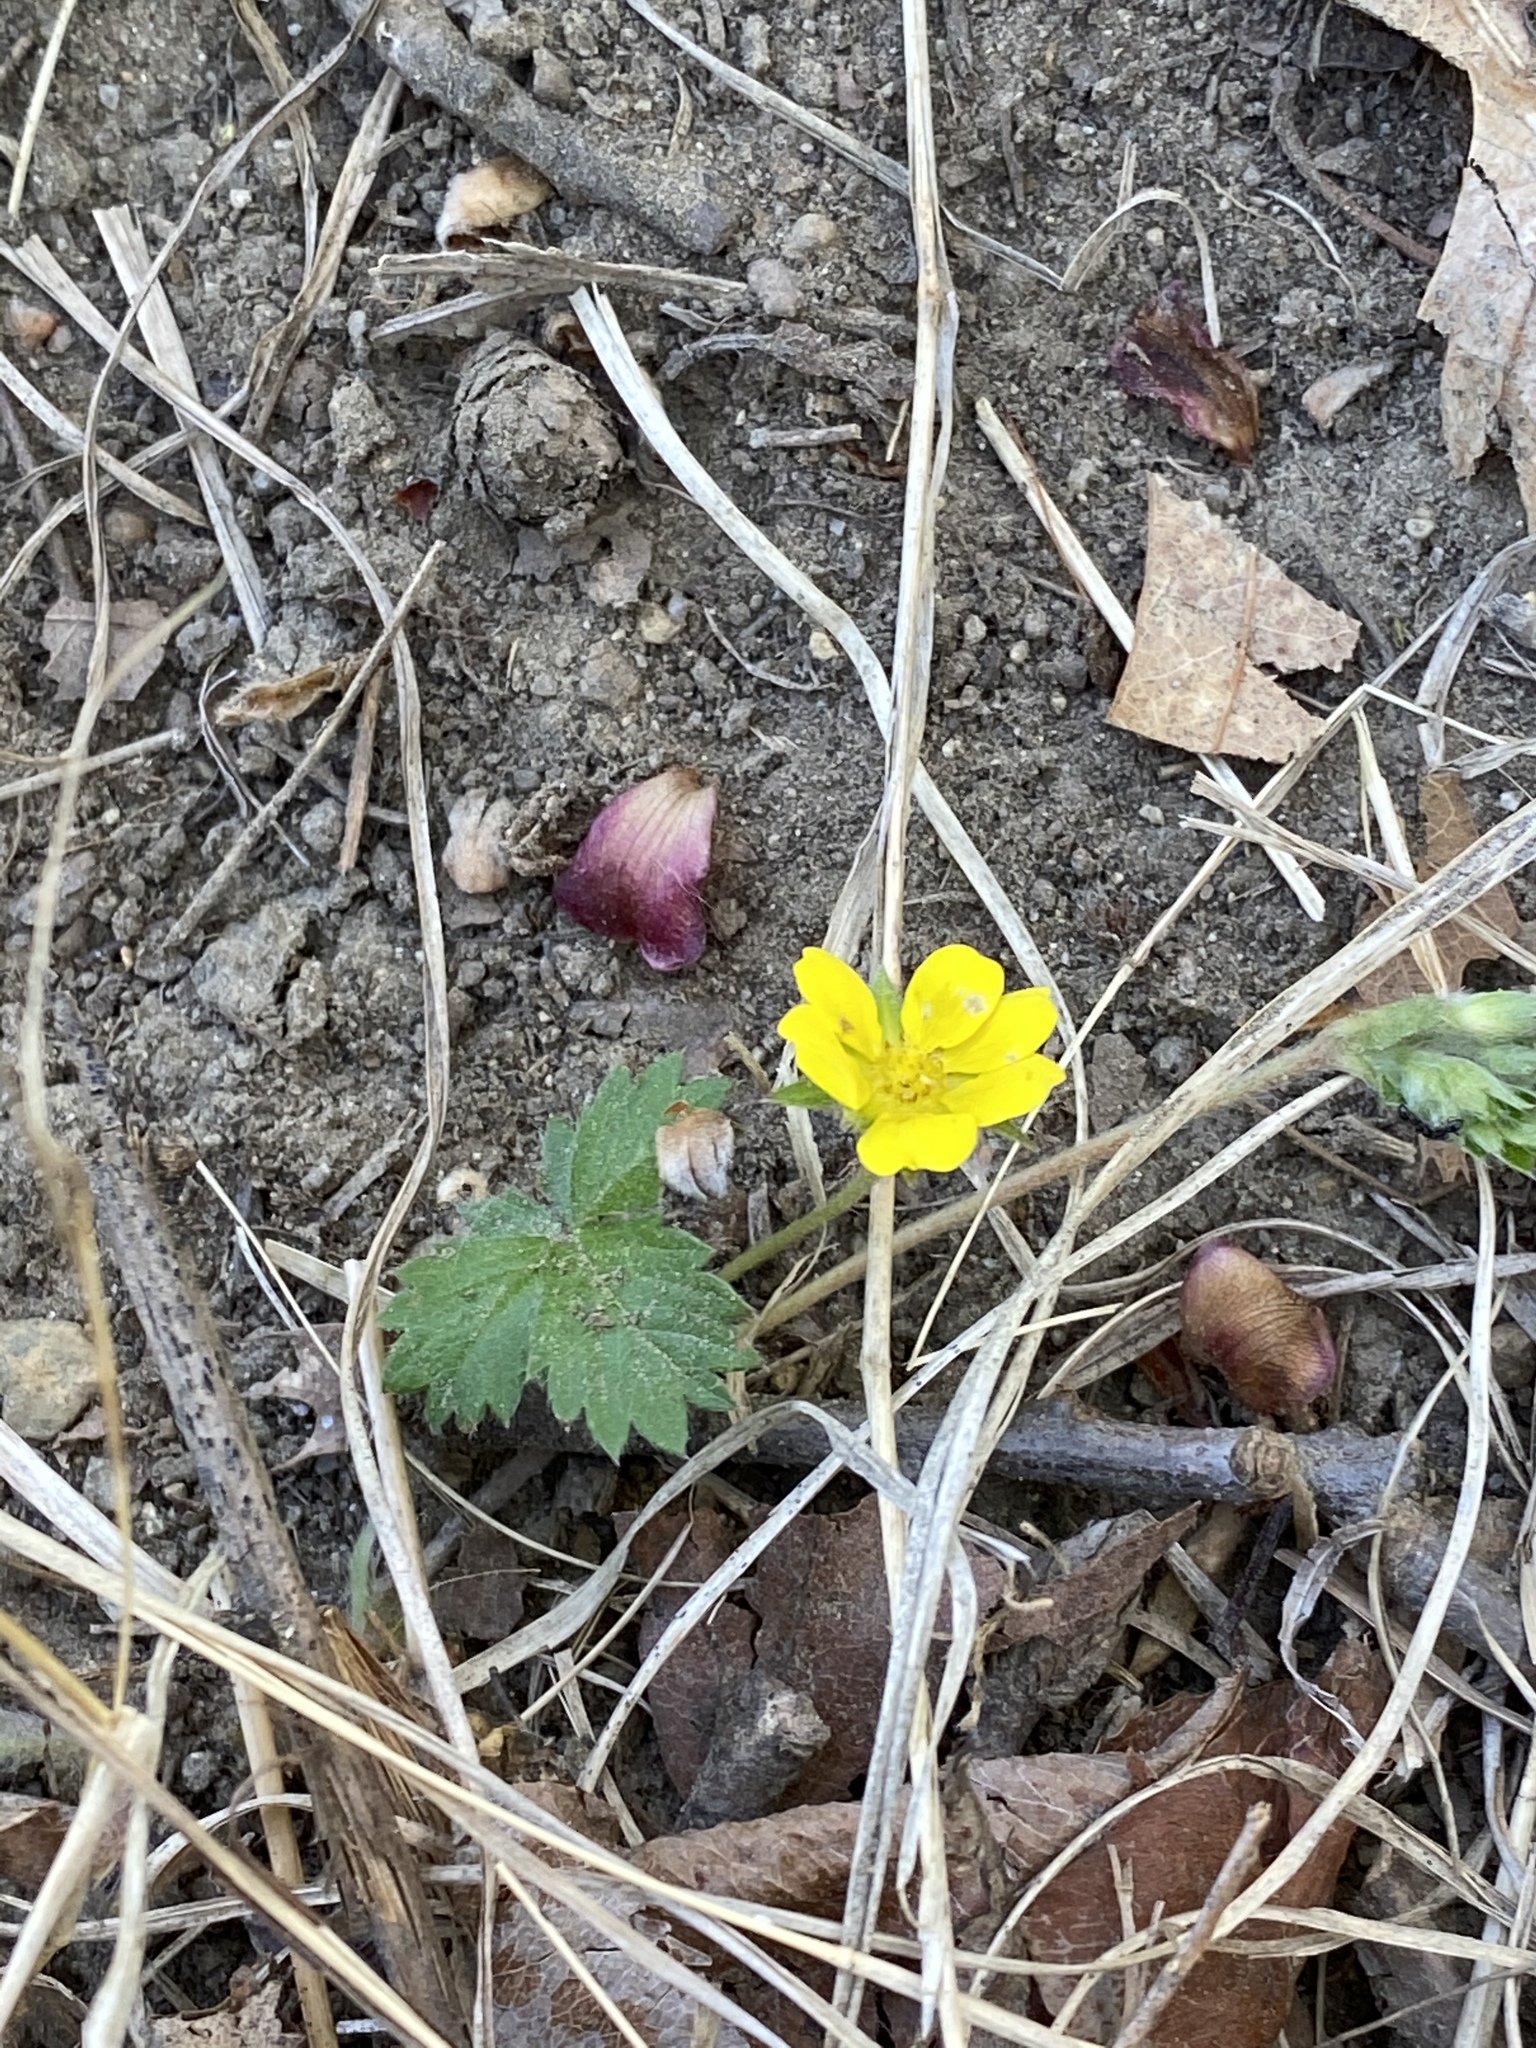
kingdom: Plantae
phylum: Tracheophyta
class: Magnoliopsida
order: Rosales
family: Rosaceae
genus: Potentilla
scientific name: Potentilla canadensis
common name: Canada cinquefoil
